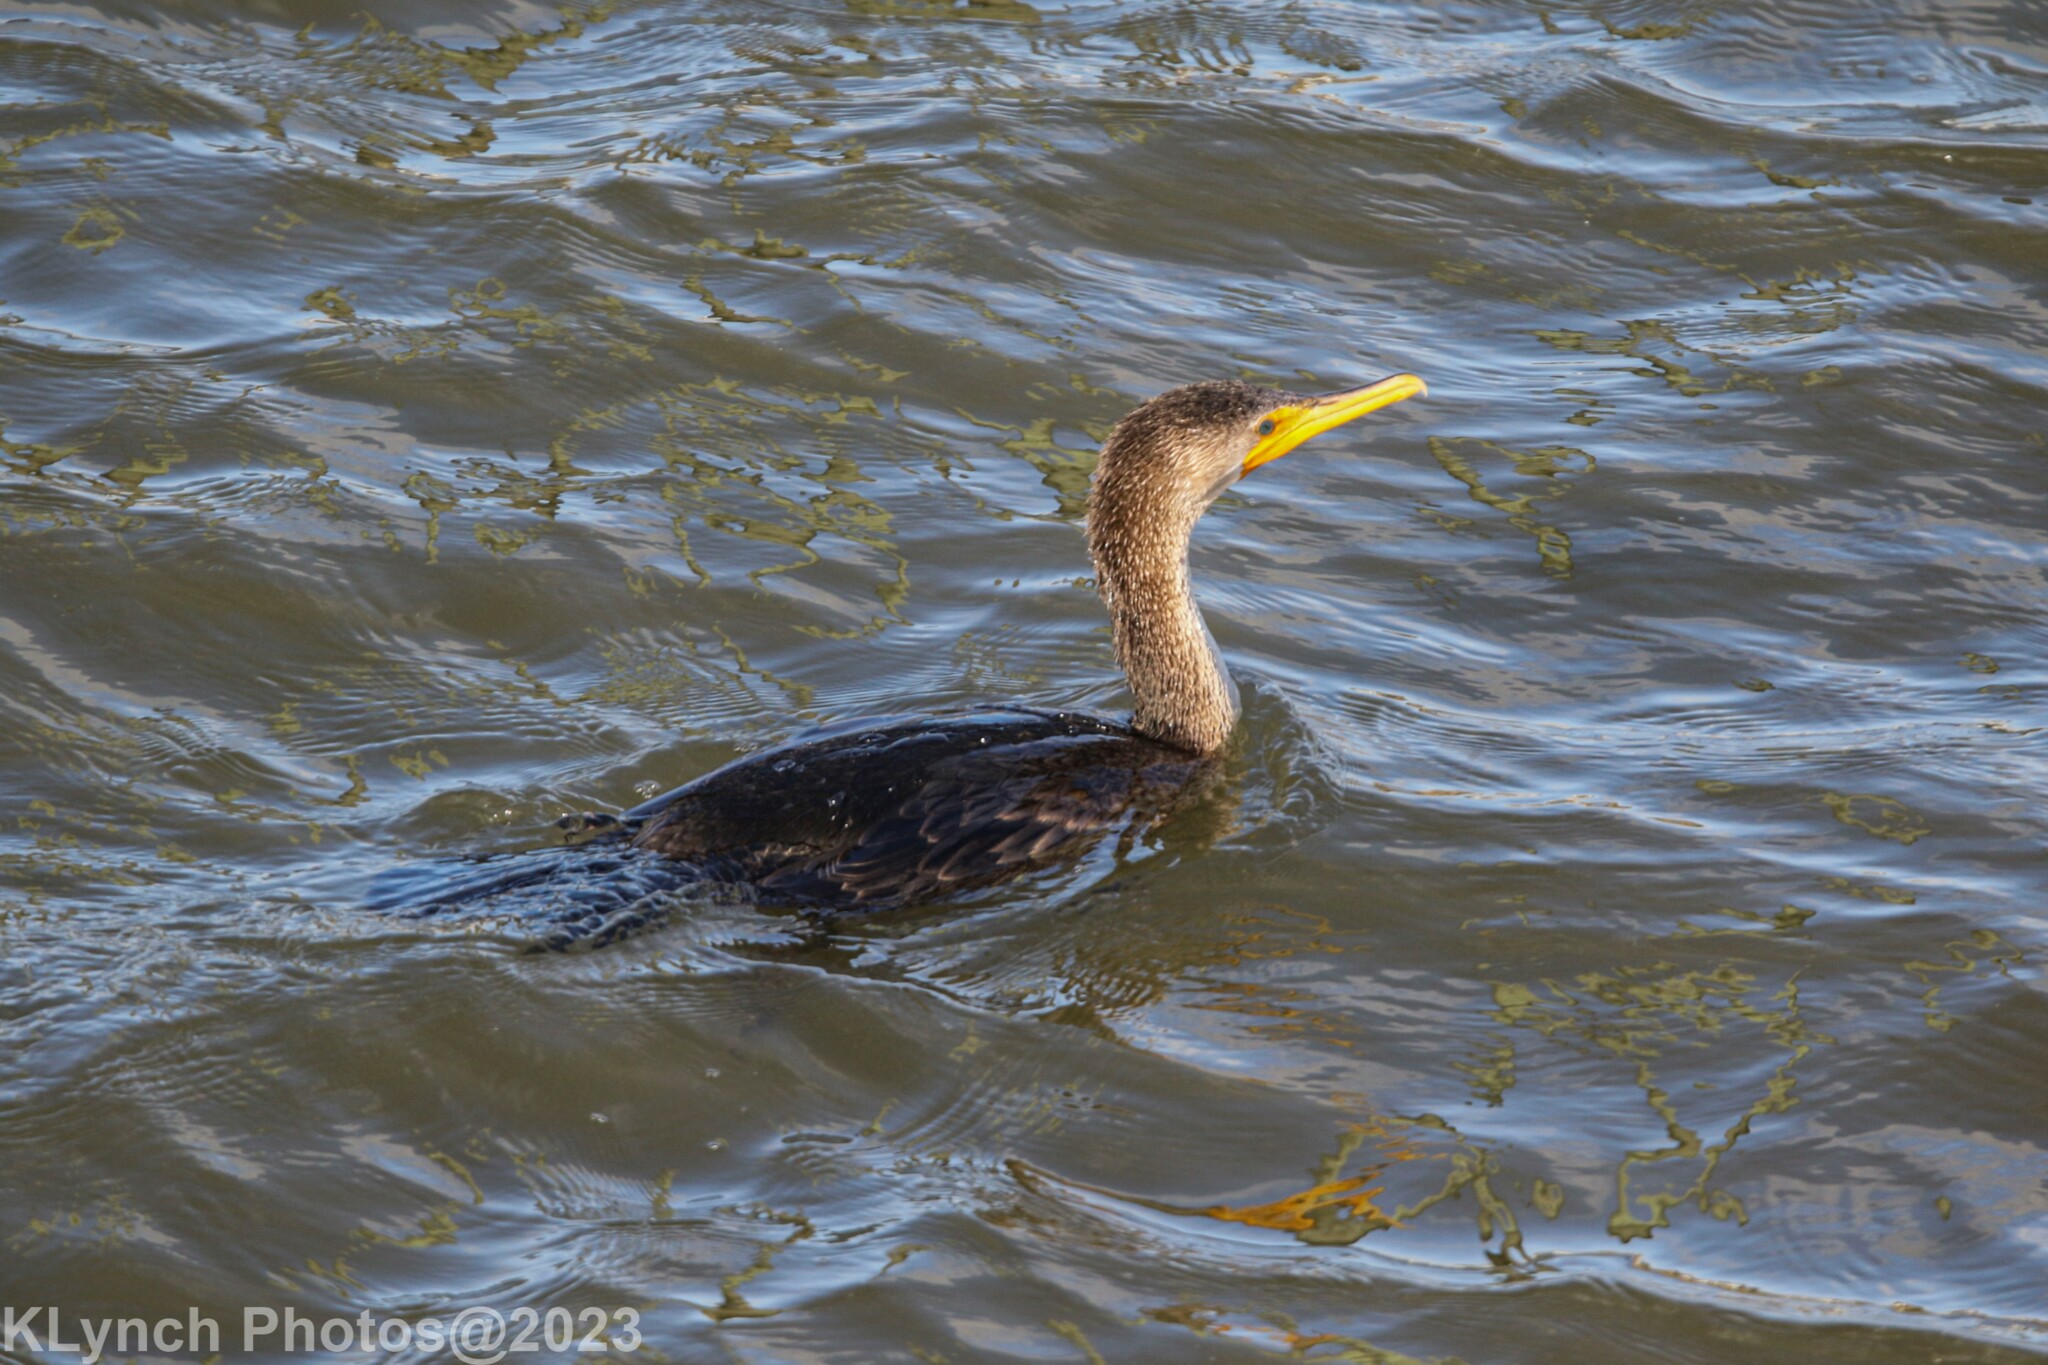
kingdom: Animalia
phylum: Chordata
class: Aves
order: Suliformes
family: Phalacrocoracidae
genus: Phalacrocorax
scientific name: Phalacrocorax auritus
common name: Double-crested cormorant
